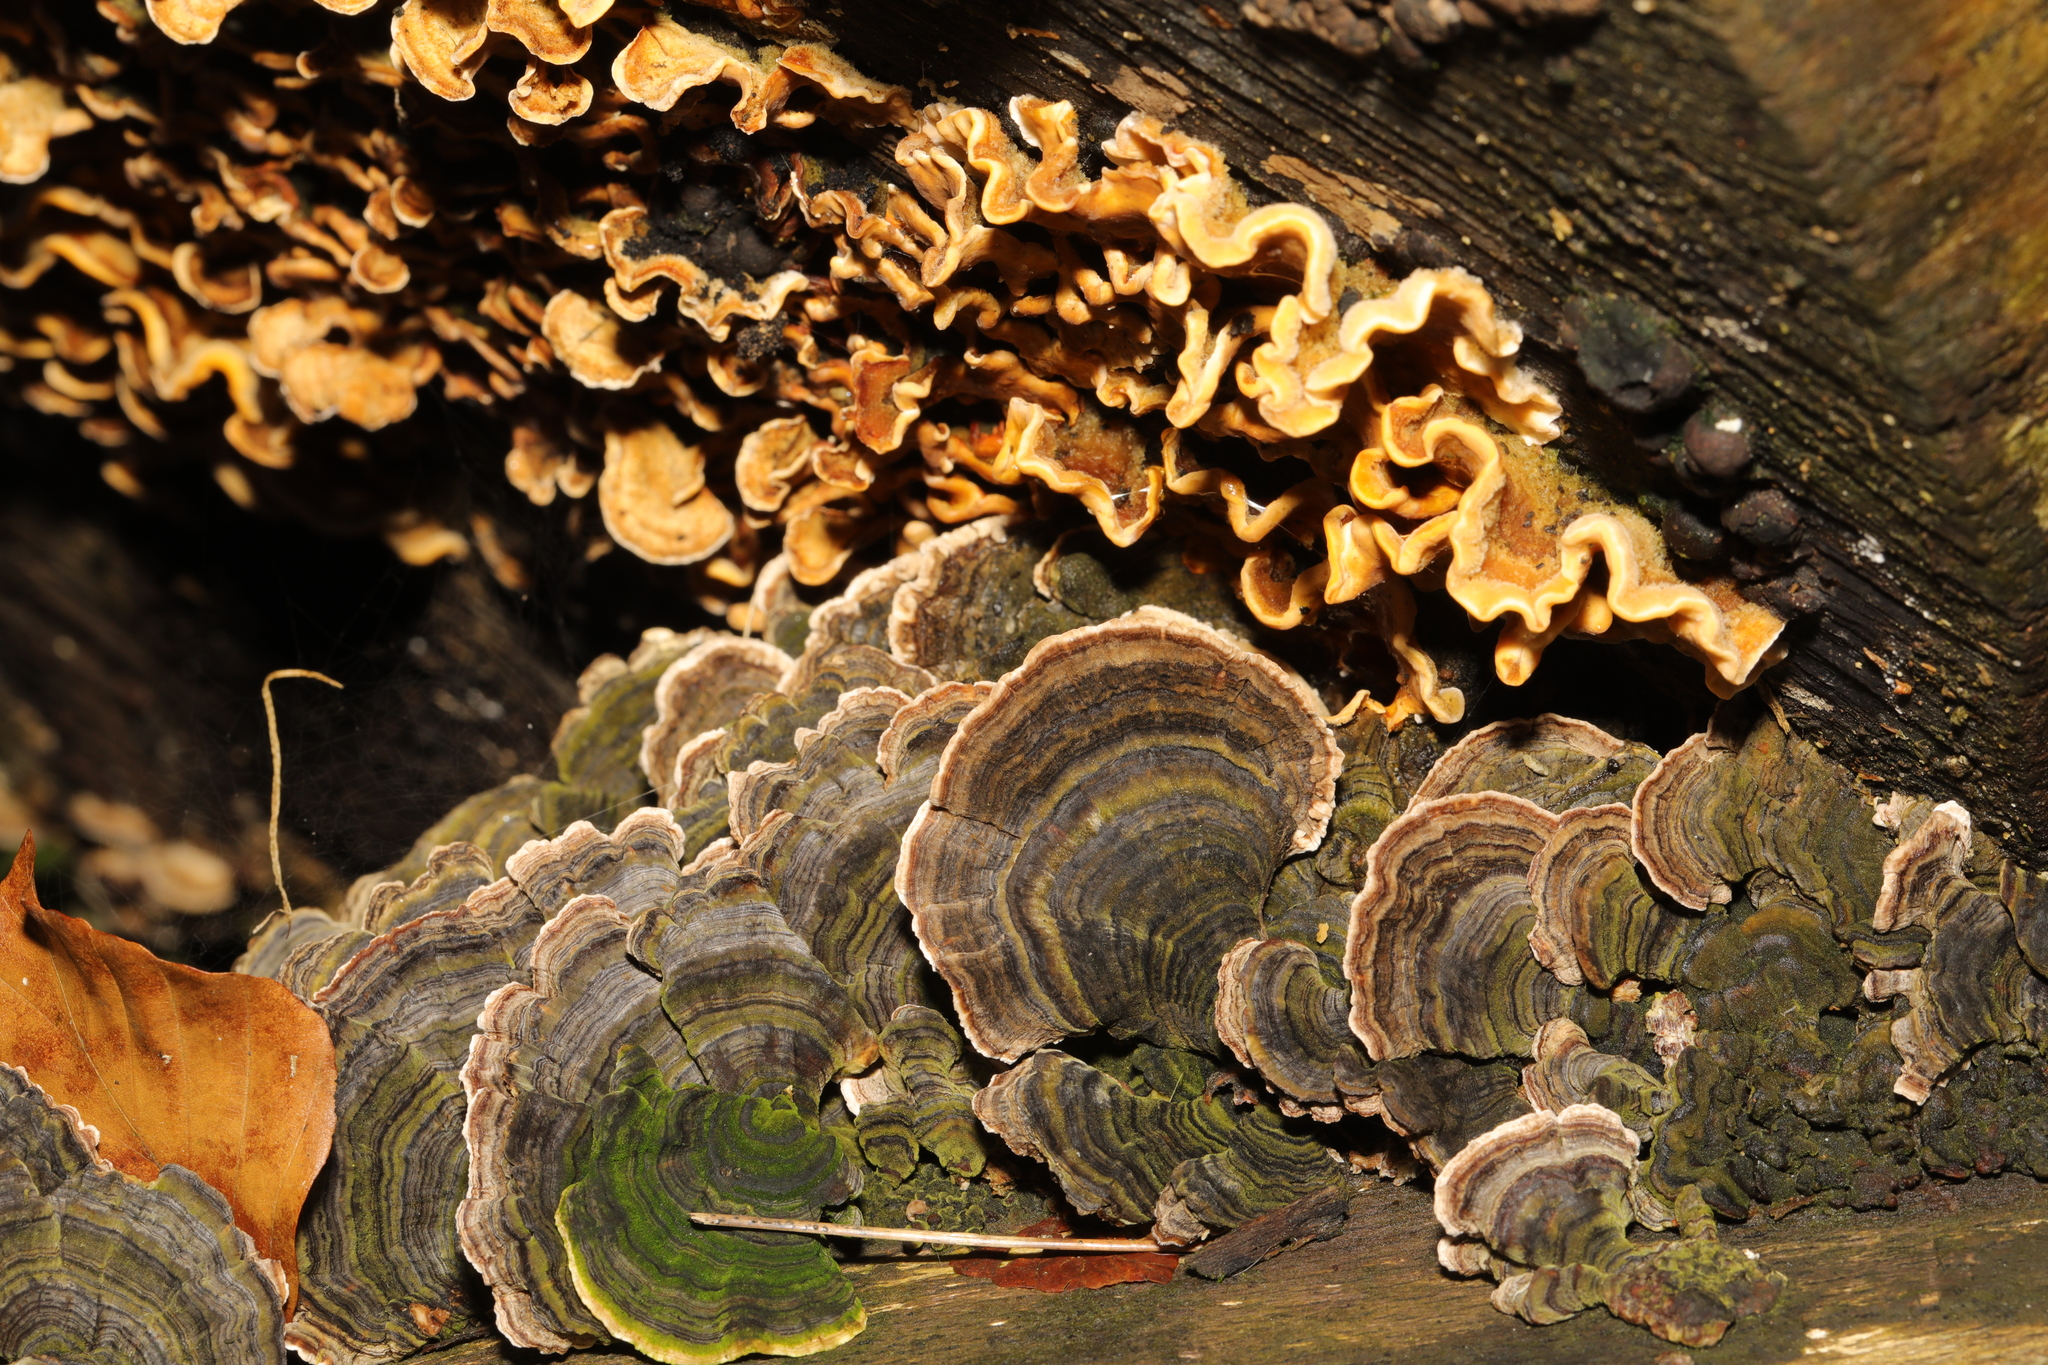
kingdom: Fungi
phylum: Basidiomycota
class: Agaricomycetes
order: Polyporales
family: Polyporaceae
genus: Trametes
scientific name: Trametes versicolor
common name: Turkeytail
